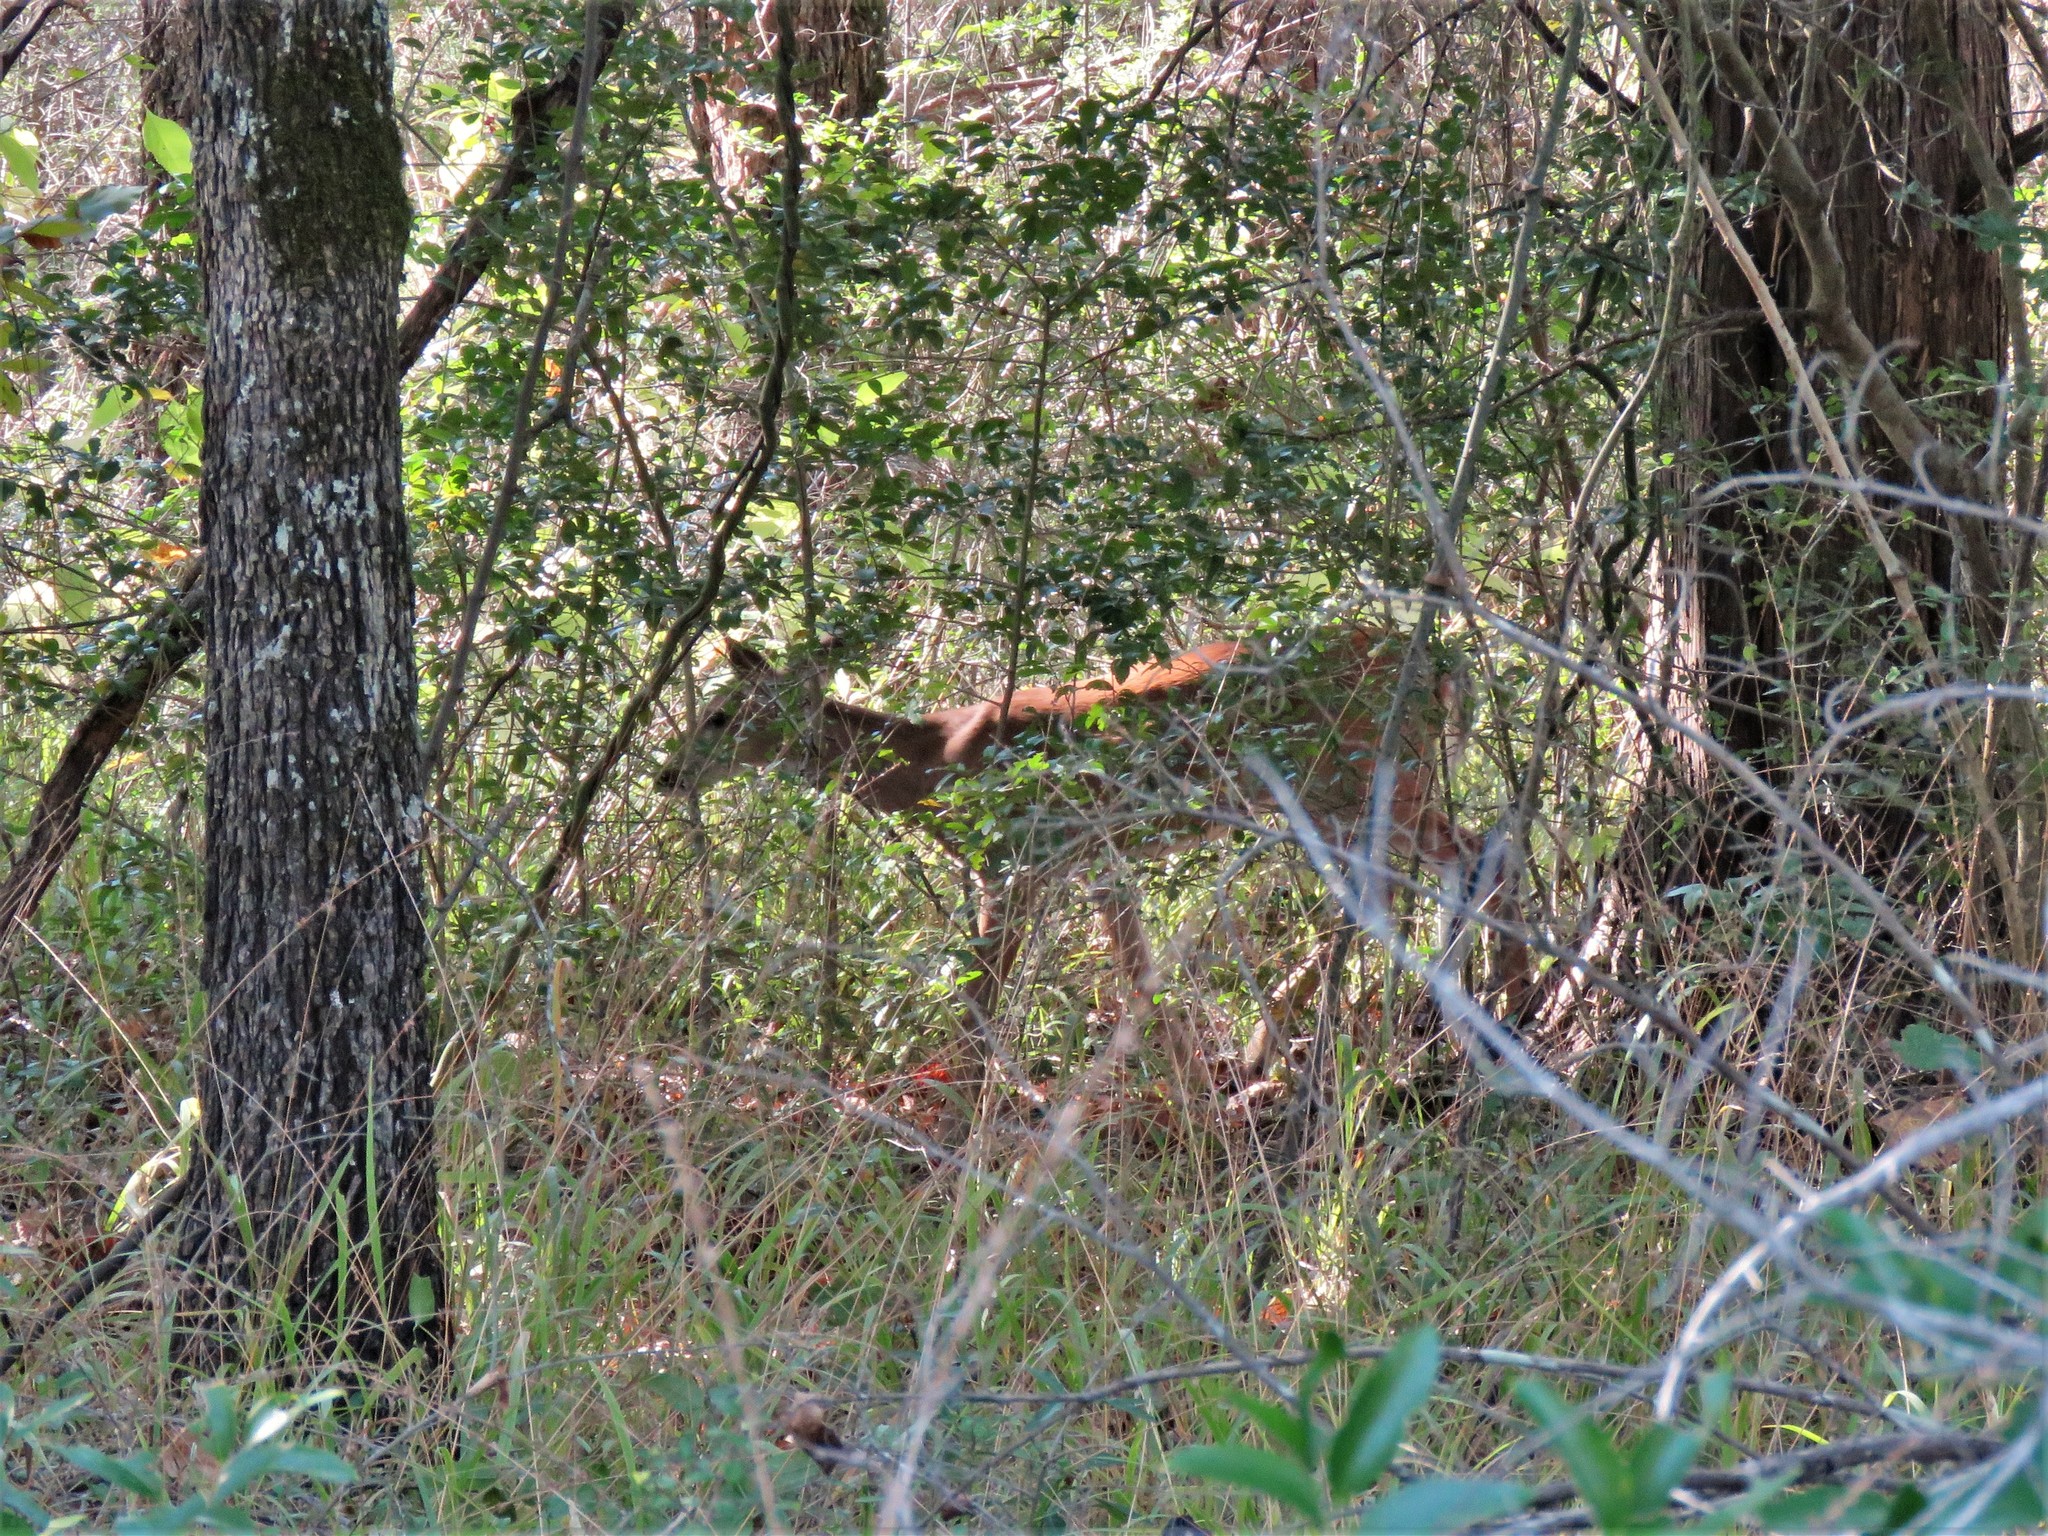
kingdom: Animalia
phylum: Chordata
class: Mammalia
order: Artiodactyla
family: Cervidae
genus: Odocoileus
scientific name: Odocoileus virginianus
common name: White-tailed deer
